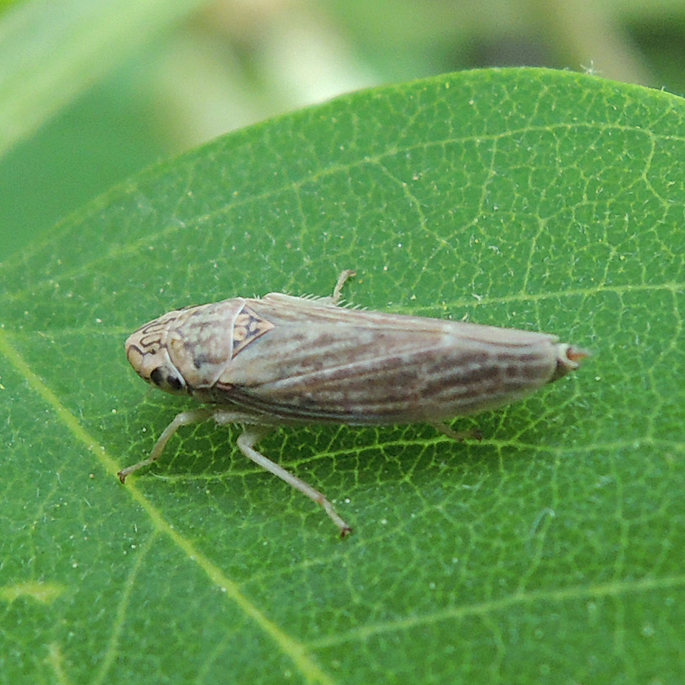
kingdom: Animalia
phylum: Arthropoda
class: Insecta
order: Hemiptera
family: Cicadellidae
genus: Neokolla
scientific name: Neokolla hieroglyphica
